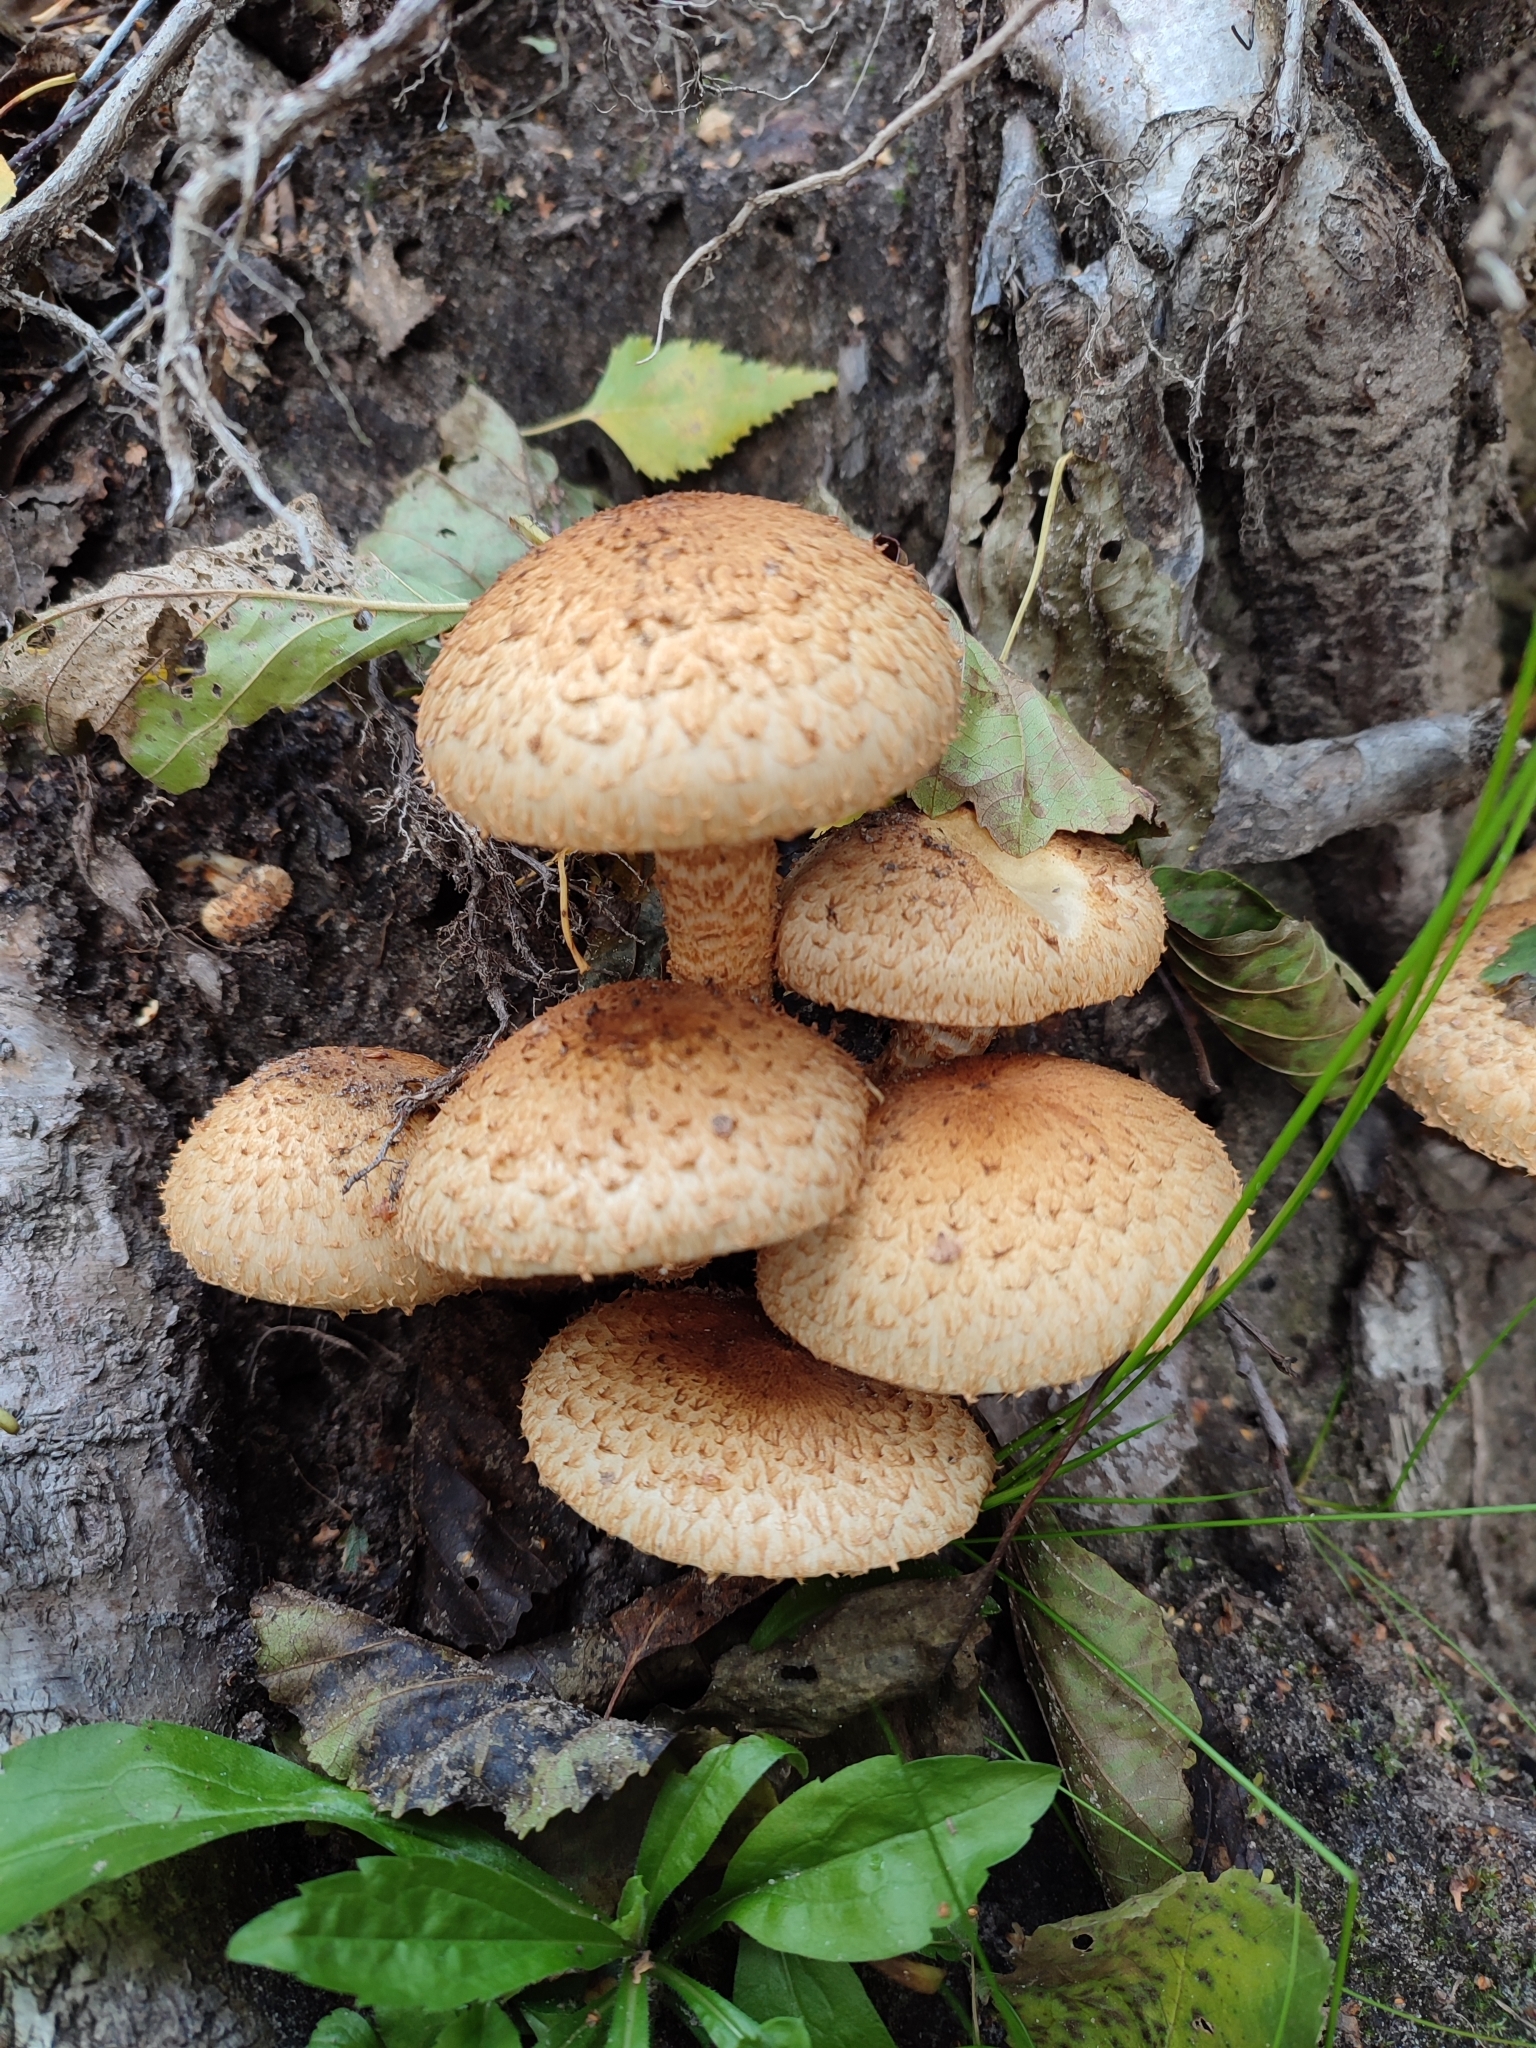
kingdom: Fungi
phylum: Basidiomycota
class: Agaricomycetes
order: Agaricales
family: Strophariaceae
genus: Pholiota
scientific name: Pholiota squarrosa
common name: Shaggy pholiota
